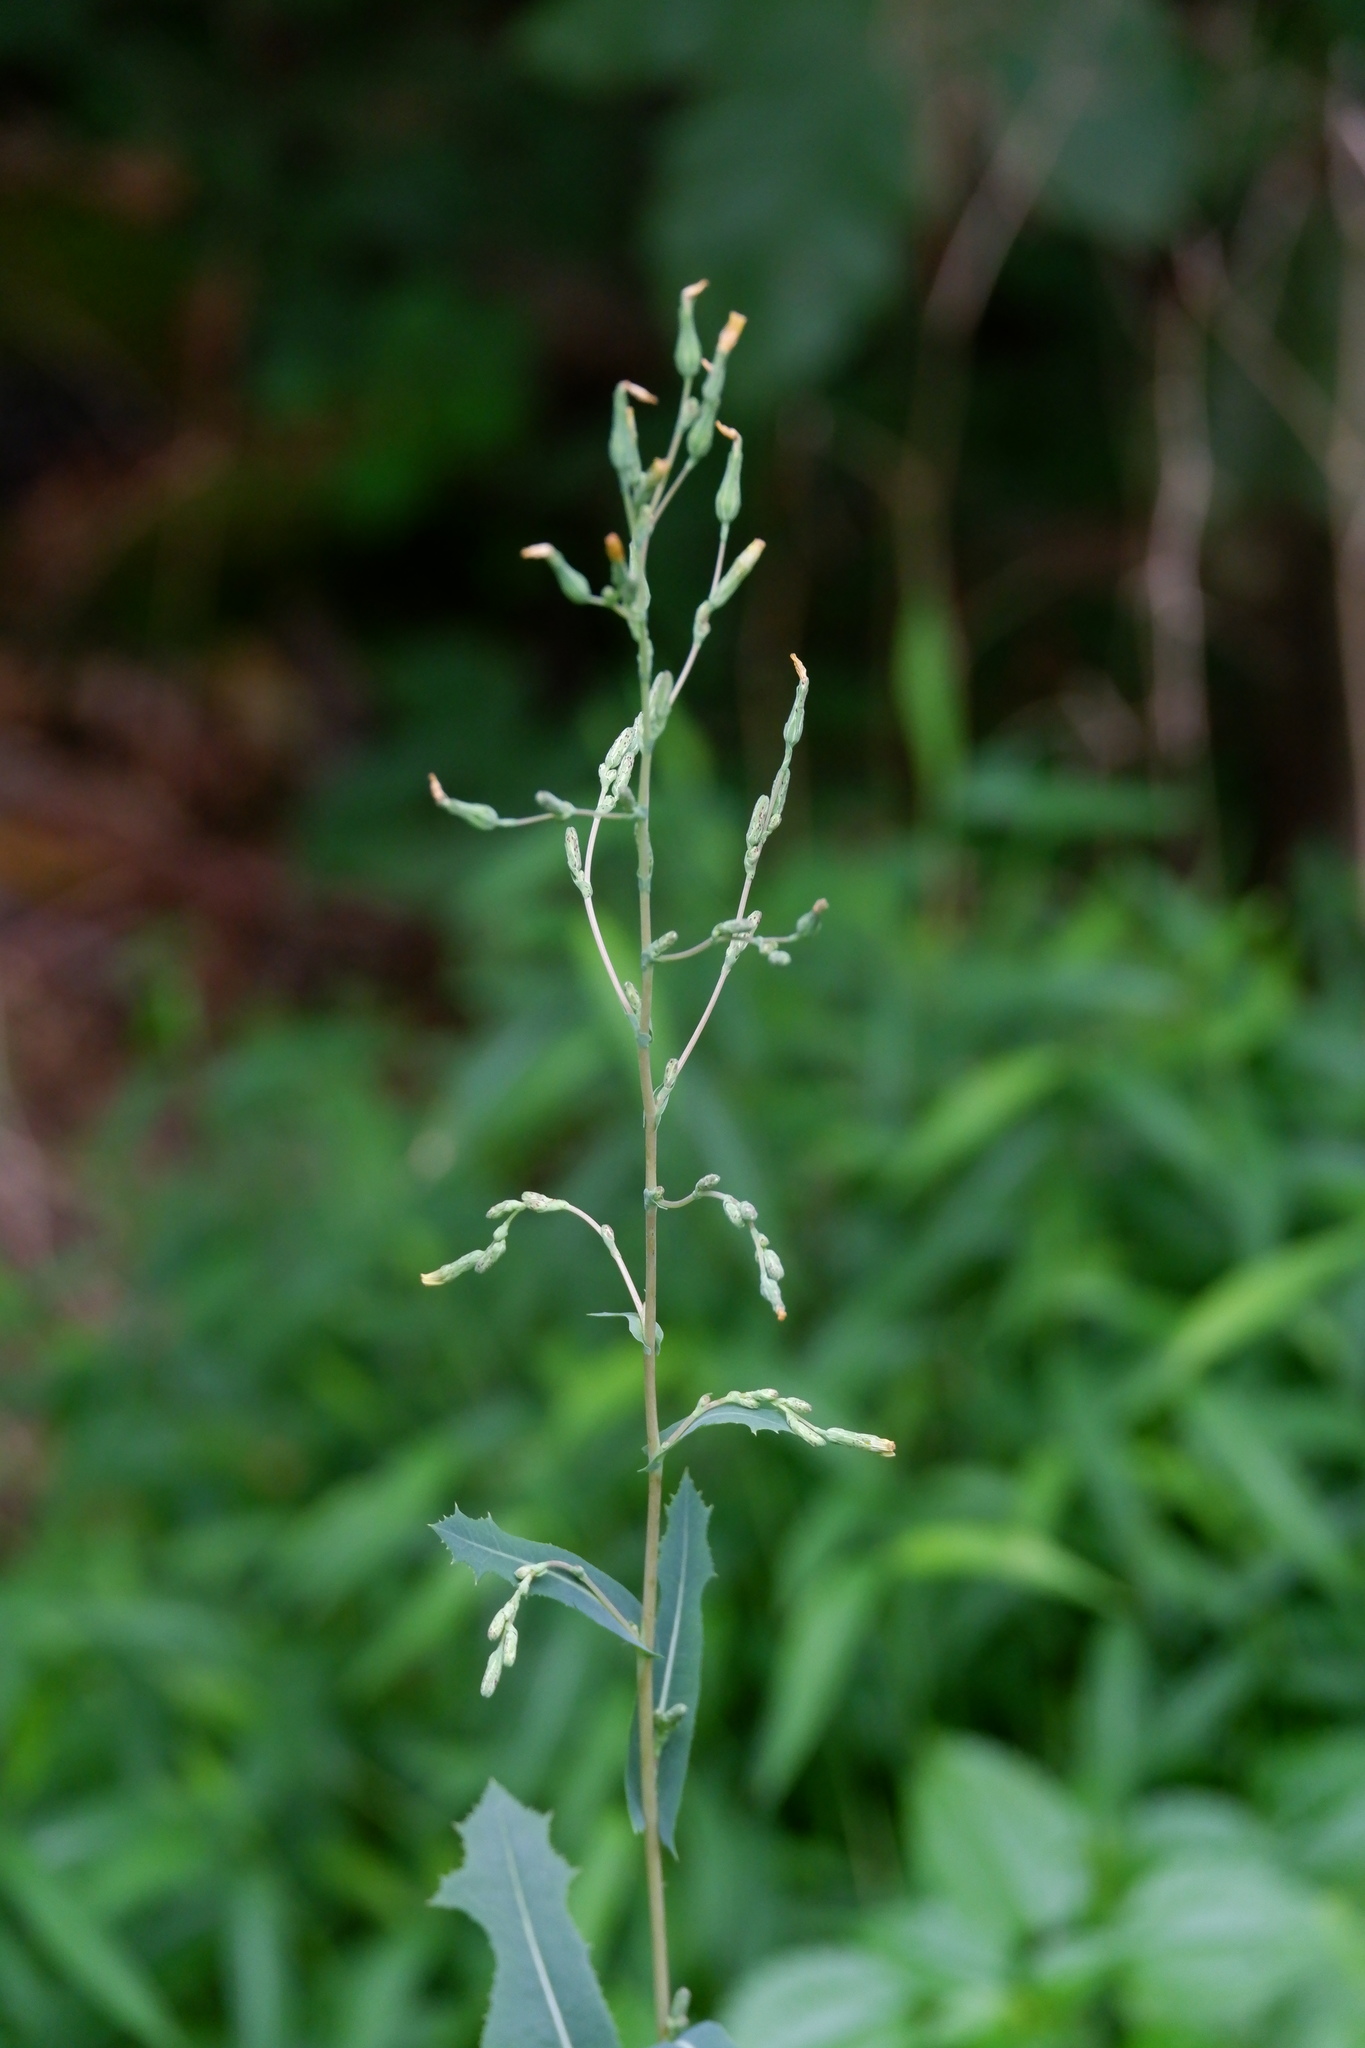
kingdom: Plantae
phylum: Tracheophyta
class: Magnoliopsida
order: Asterales
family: Asteraceae
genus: Lactuca
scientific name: Lactuca serriola
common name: Prickly lettuce
